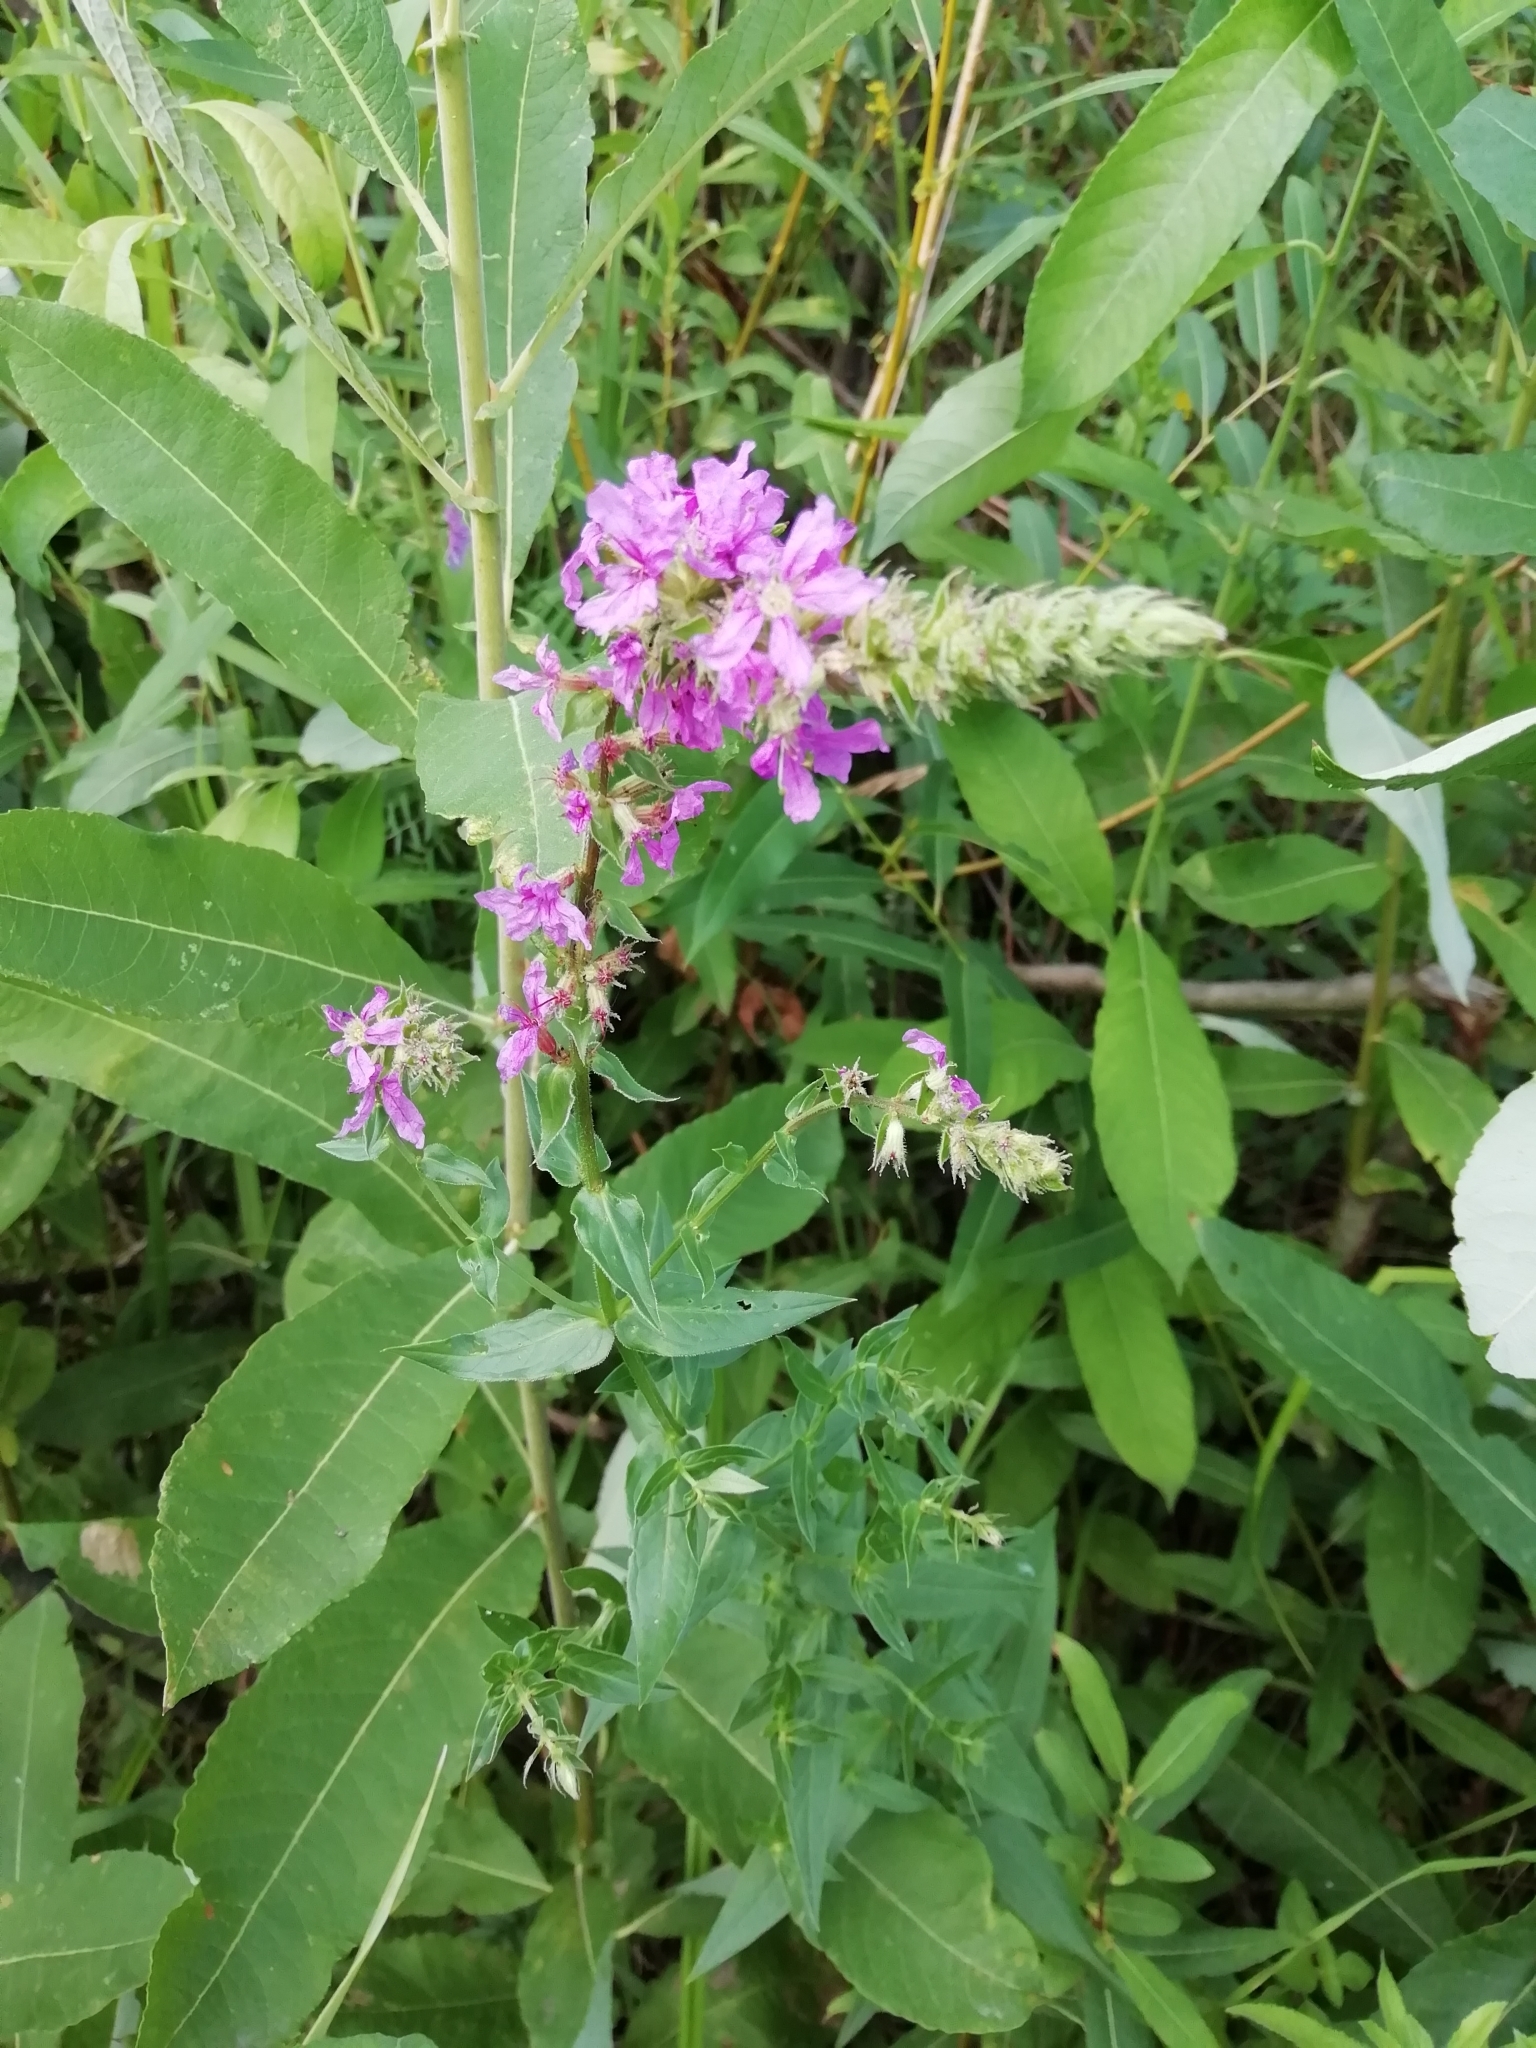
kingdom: Plantae
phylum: Tracheophyta
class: Magnoliopsida
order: Myrtales
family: Lythraceae
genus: Lythrum
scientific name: Lythrum salicaria
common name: Purple loosestrife
